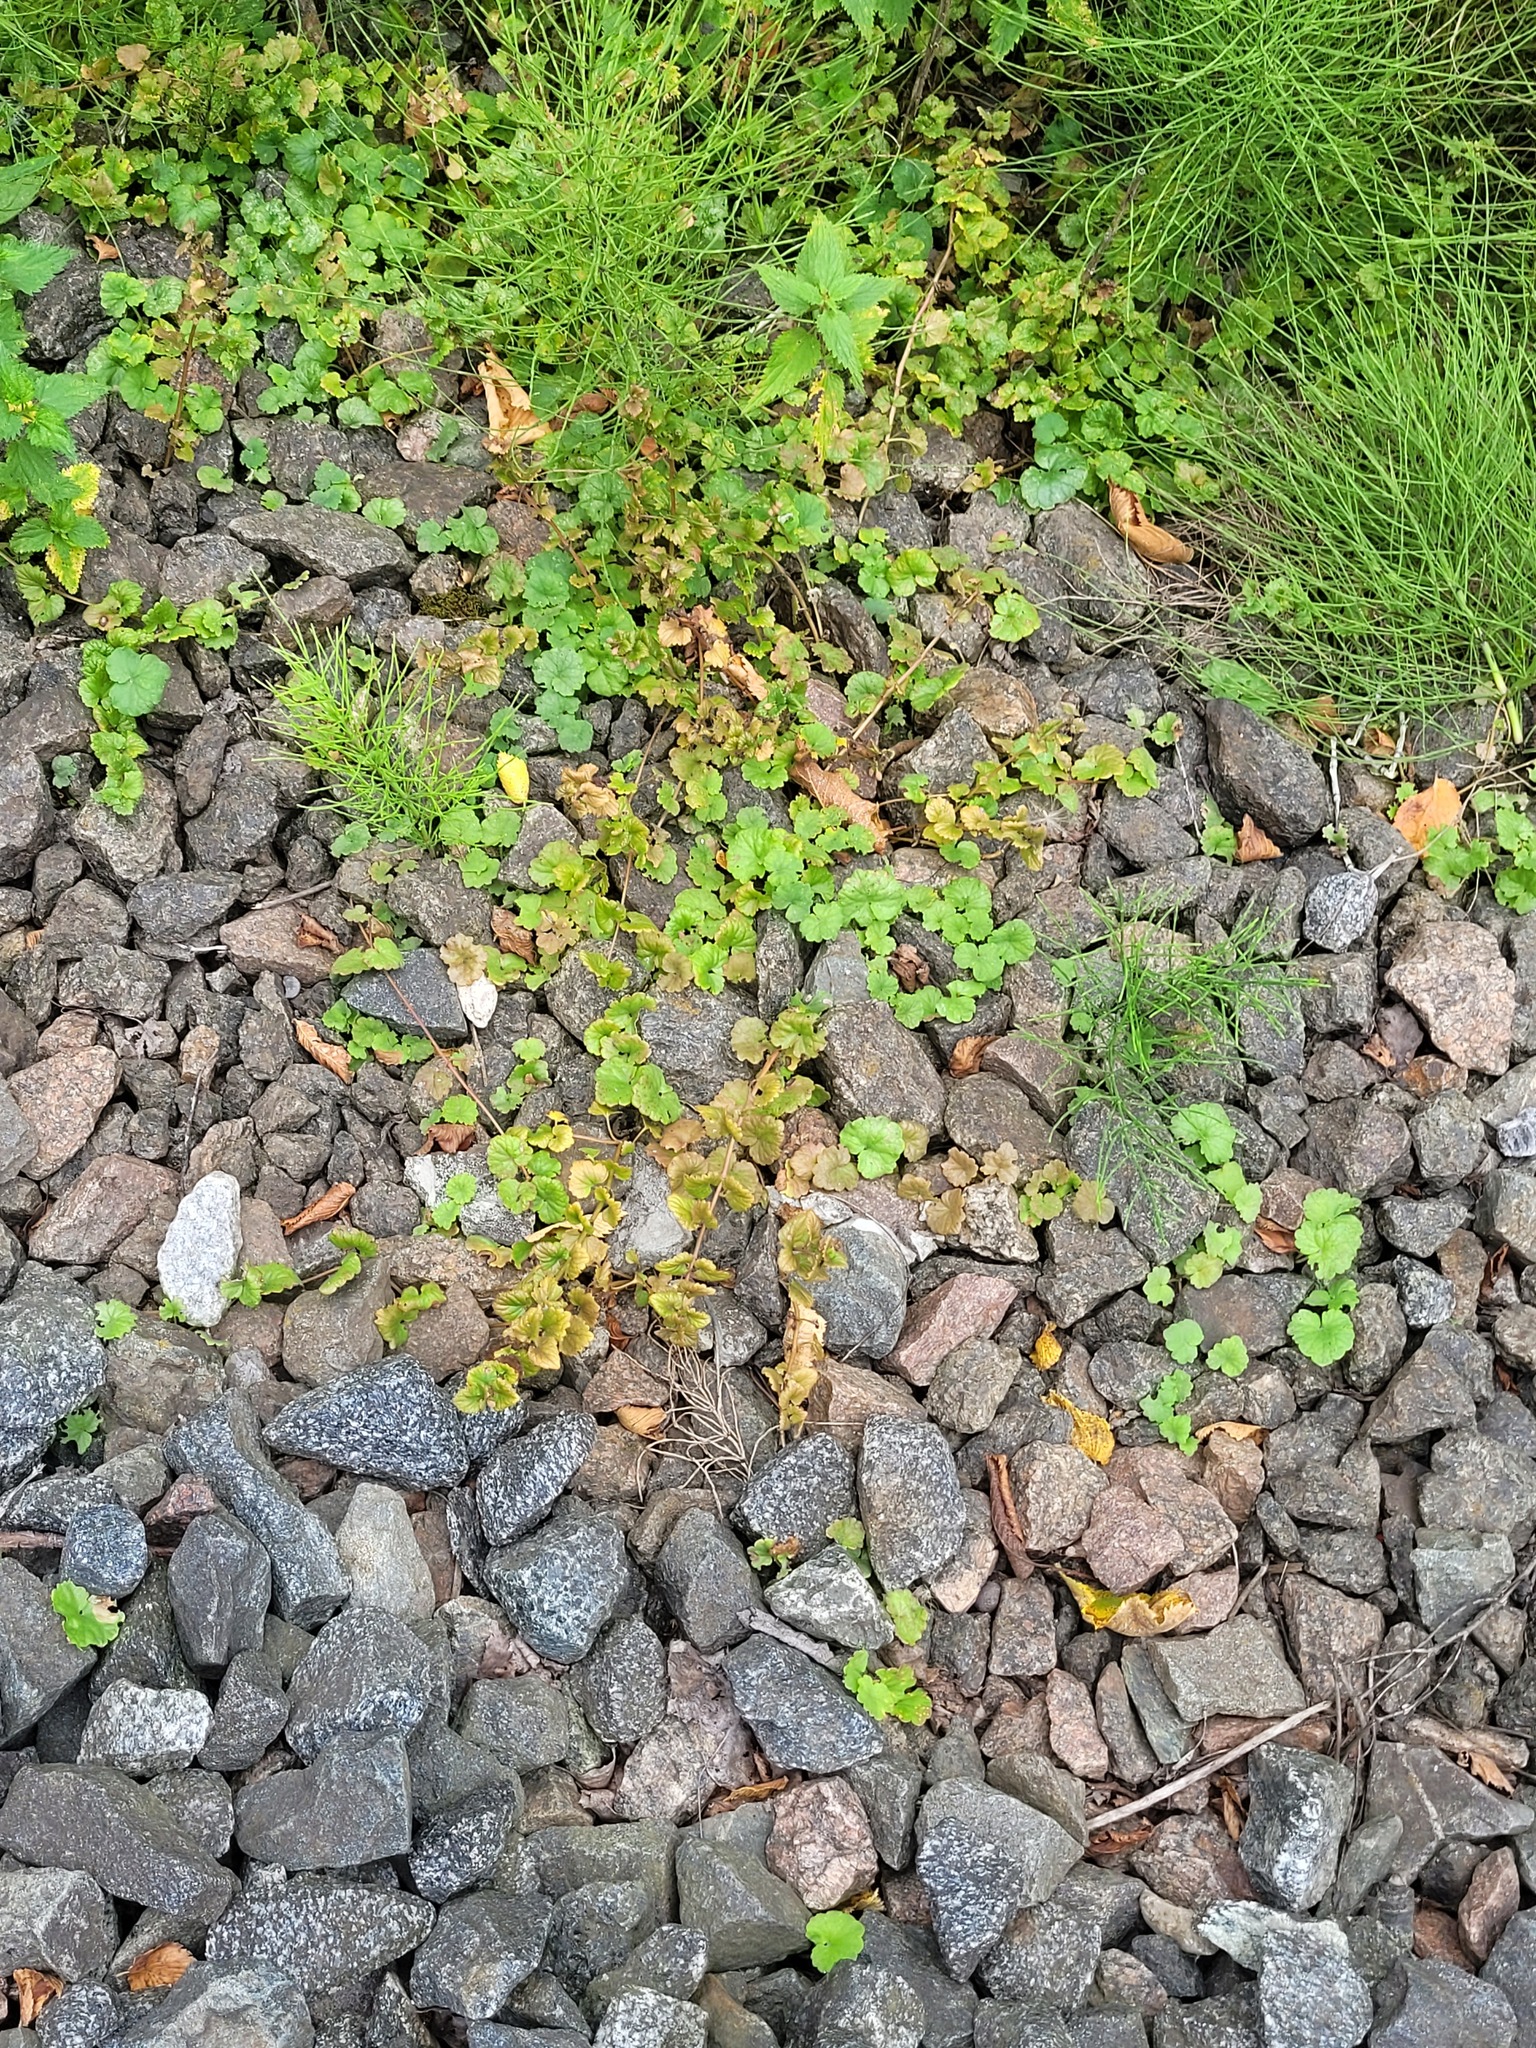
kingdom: Plantae
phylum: Tracheophyta
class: Magnoliopsida
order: Lamiales
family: Lamiaceae
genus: Glechoma
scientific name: Glechoma hederacea
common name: Ground ivy
